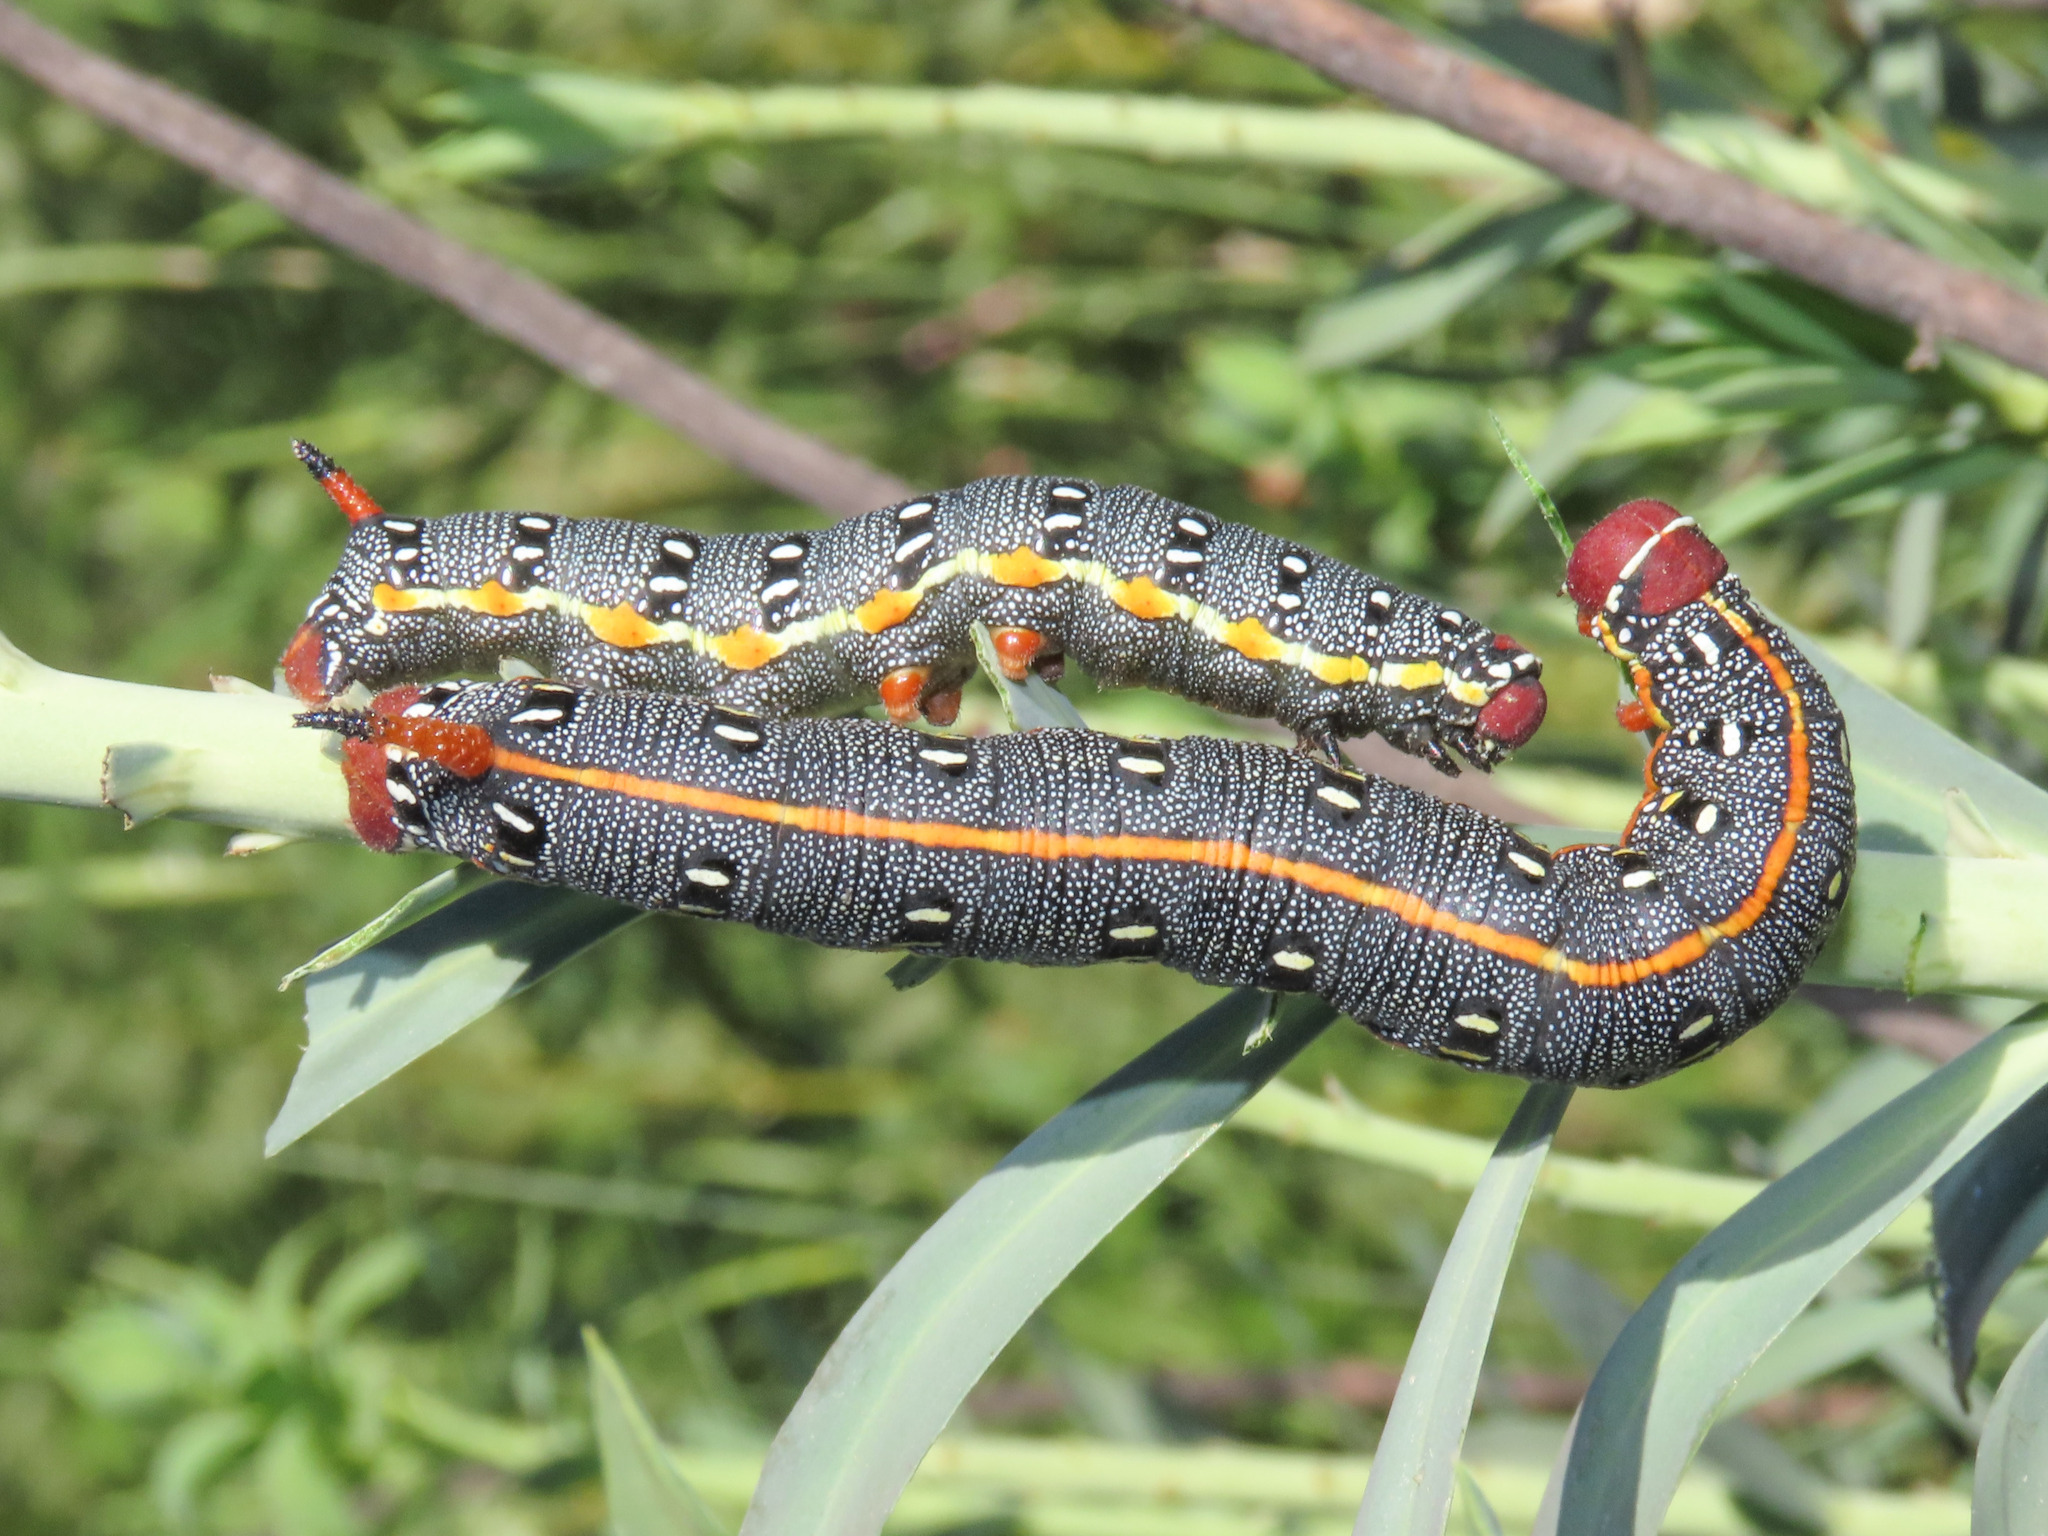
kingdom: Animalia
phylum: Arthropoda
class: Insecta
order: Lepidoptera
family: Sphingidae
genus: Hyles
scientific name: Hyles dahlii
